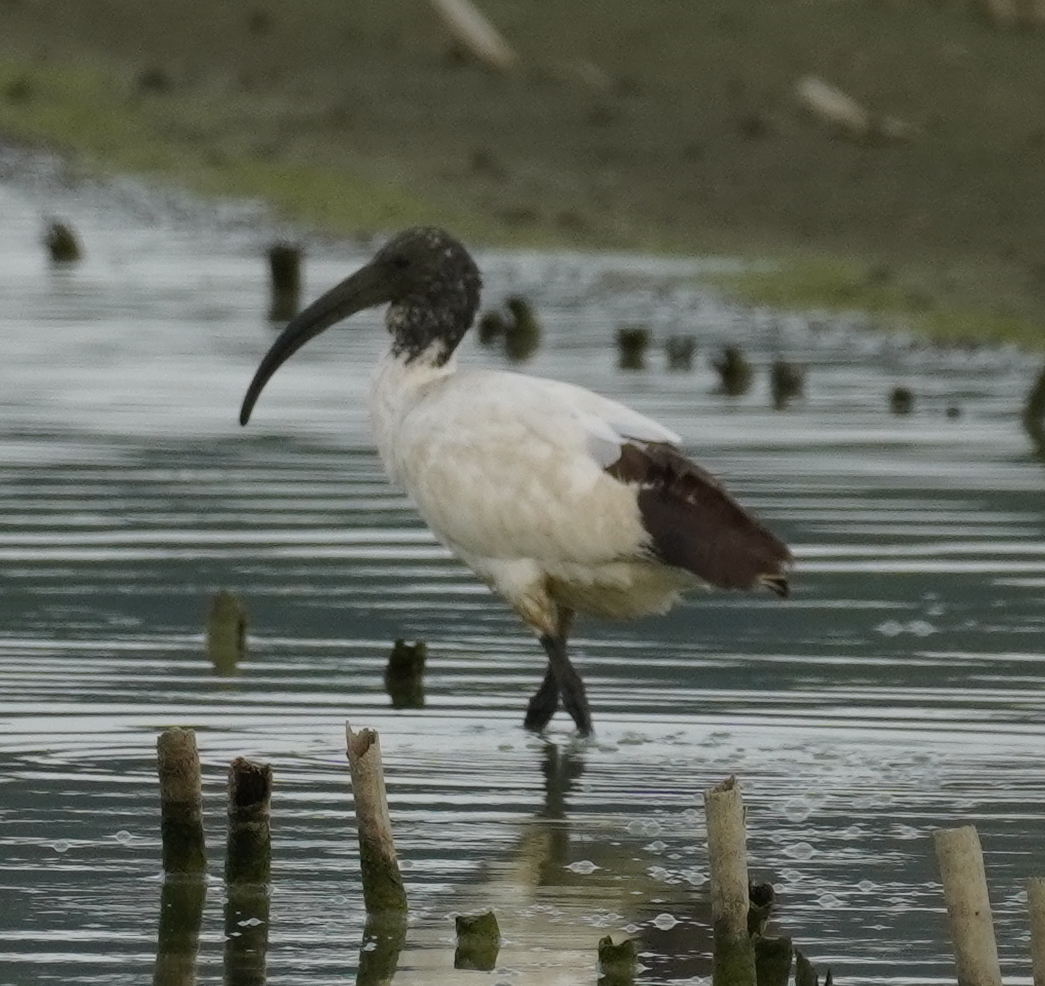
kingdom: Animalia
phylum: Chordata
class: Aves
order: Pelecaniformes
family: Threskiornithidae
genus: Threskiornis
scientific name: Threskiornis aethiopicus
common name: Sacred ibis
